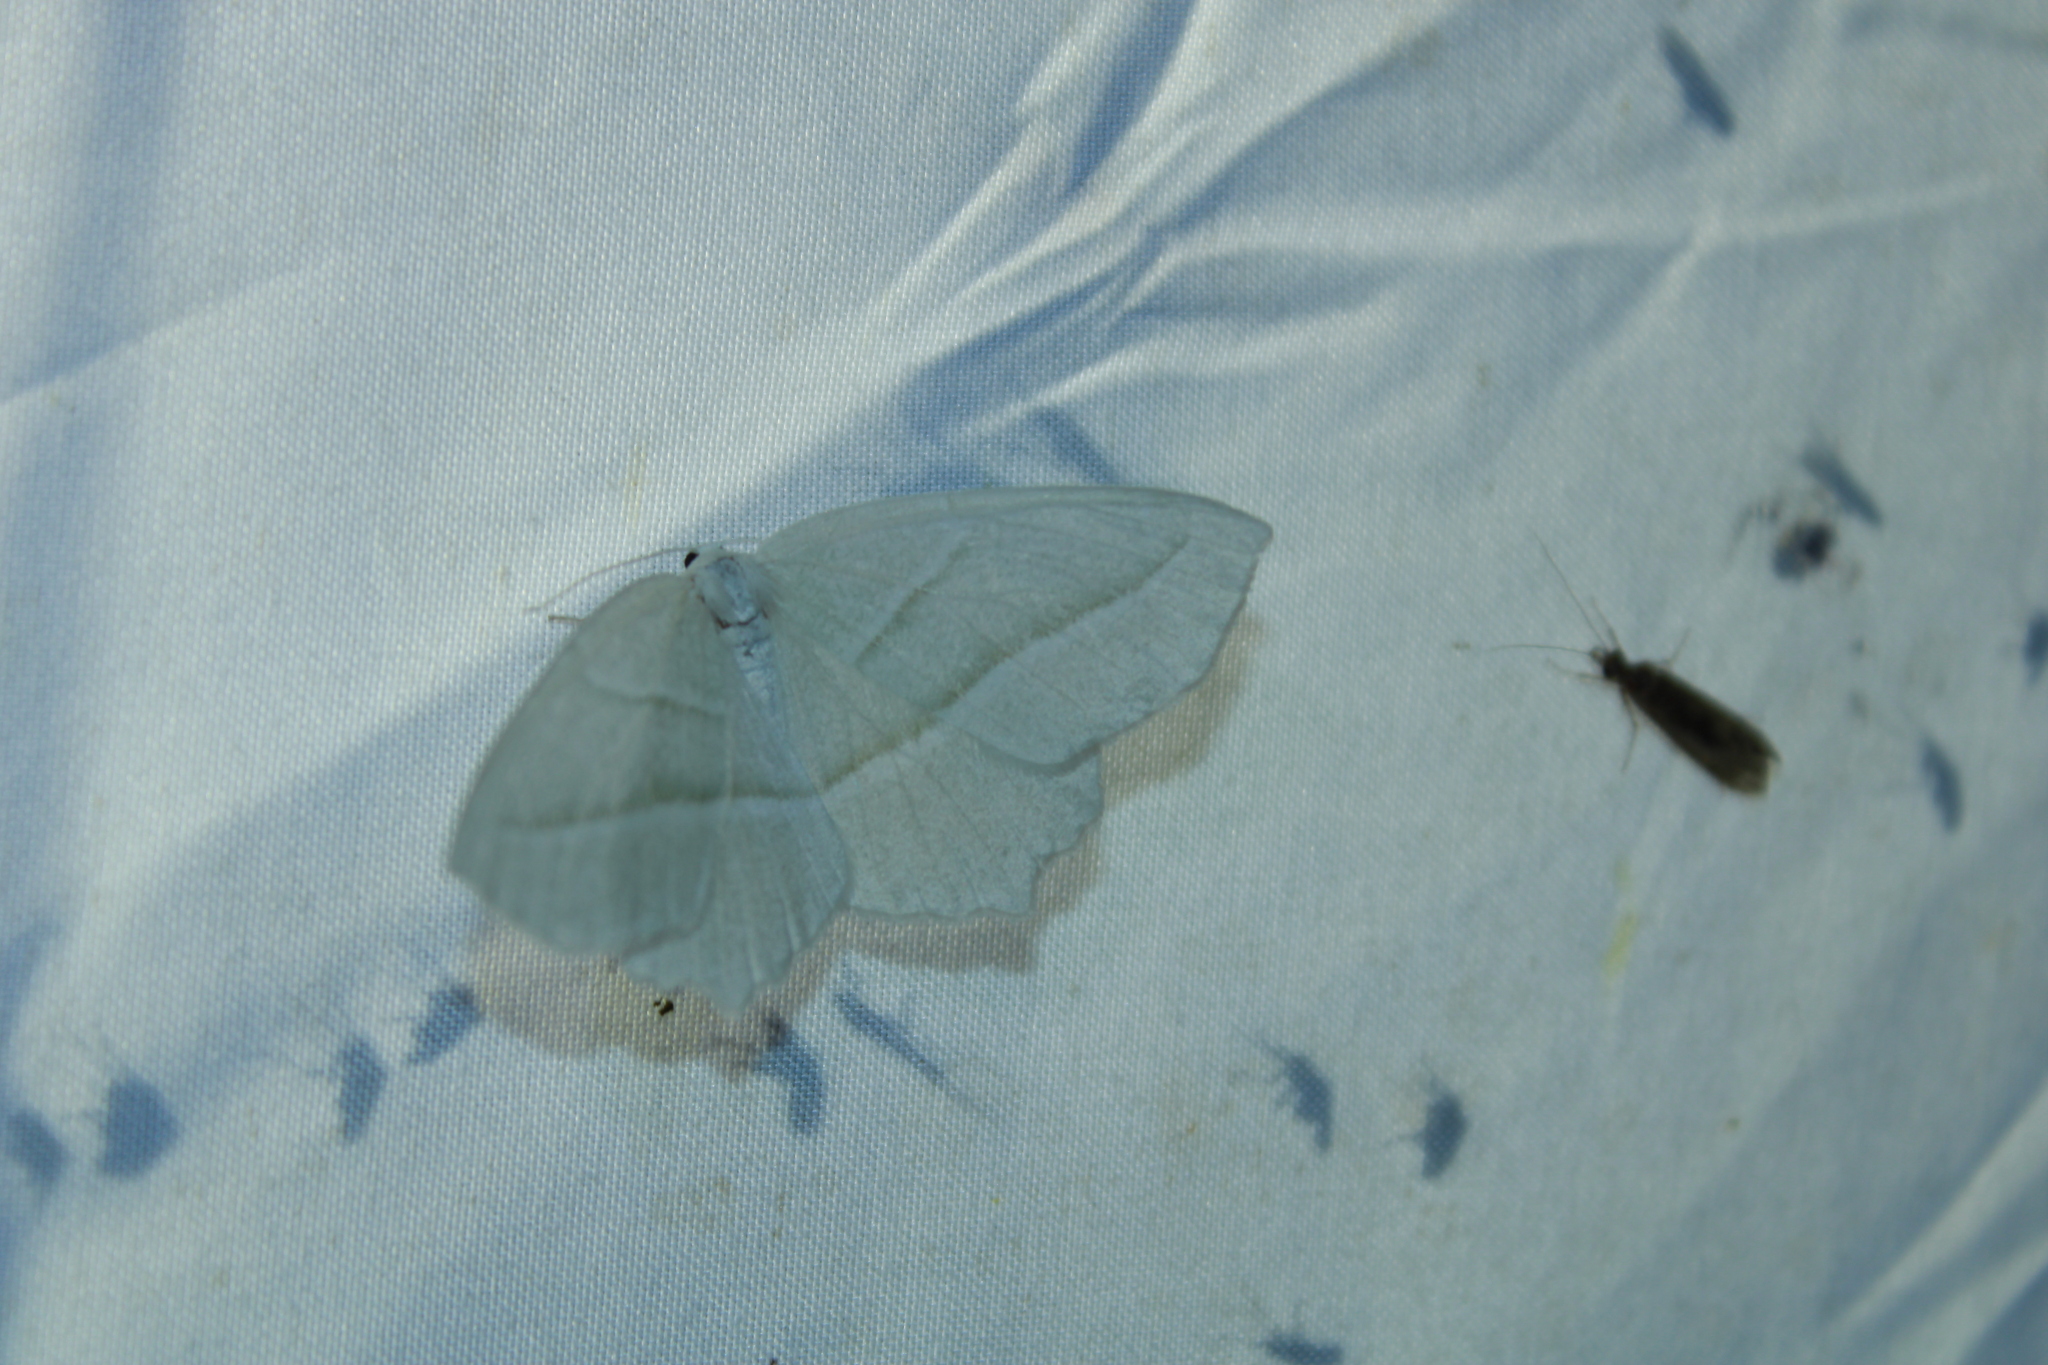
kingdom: Animalia
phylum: Arthropoda
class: Insecta
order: Lepidoptera
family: Geometridae
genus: Campaea
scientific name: Campaea perlata
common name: Fringed looper
